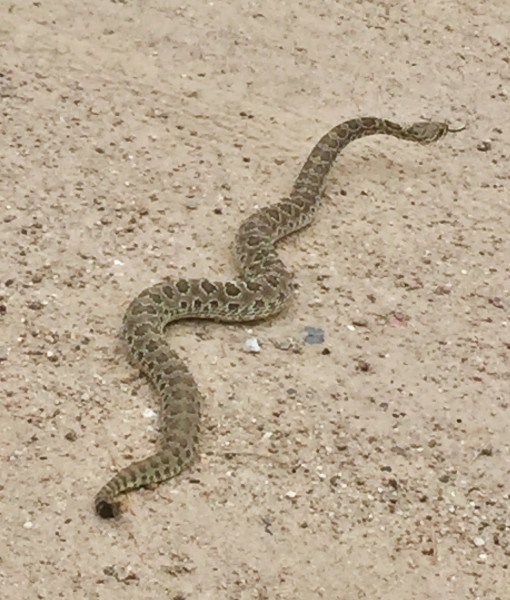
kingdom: Animalia
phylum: Chordata
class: Squamata
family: Viperidae
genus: Crotalus
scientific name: Crotalus viridis
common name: Prairie rattlesnake
